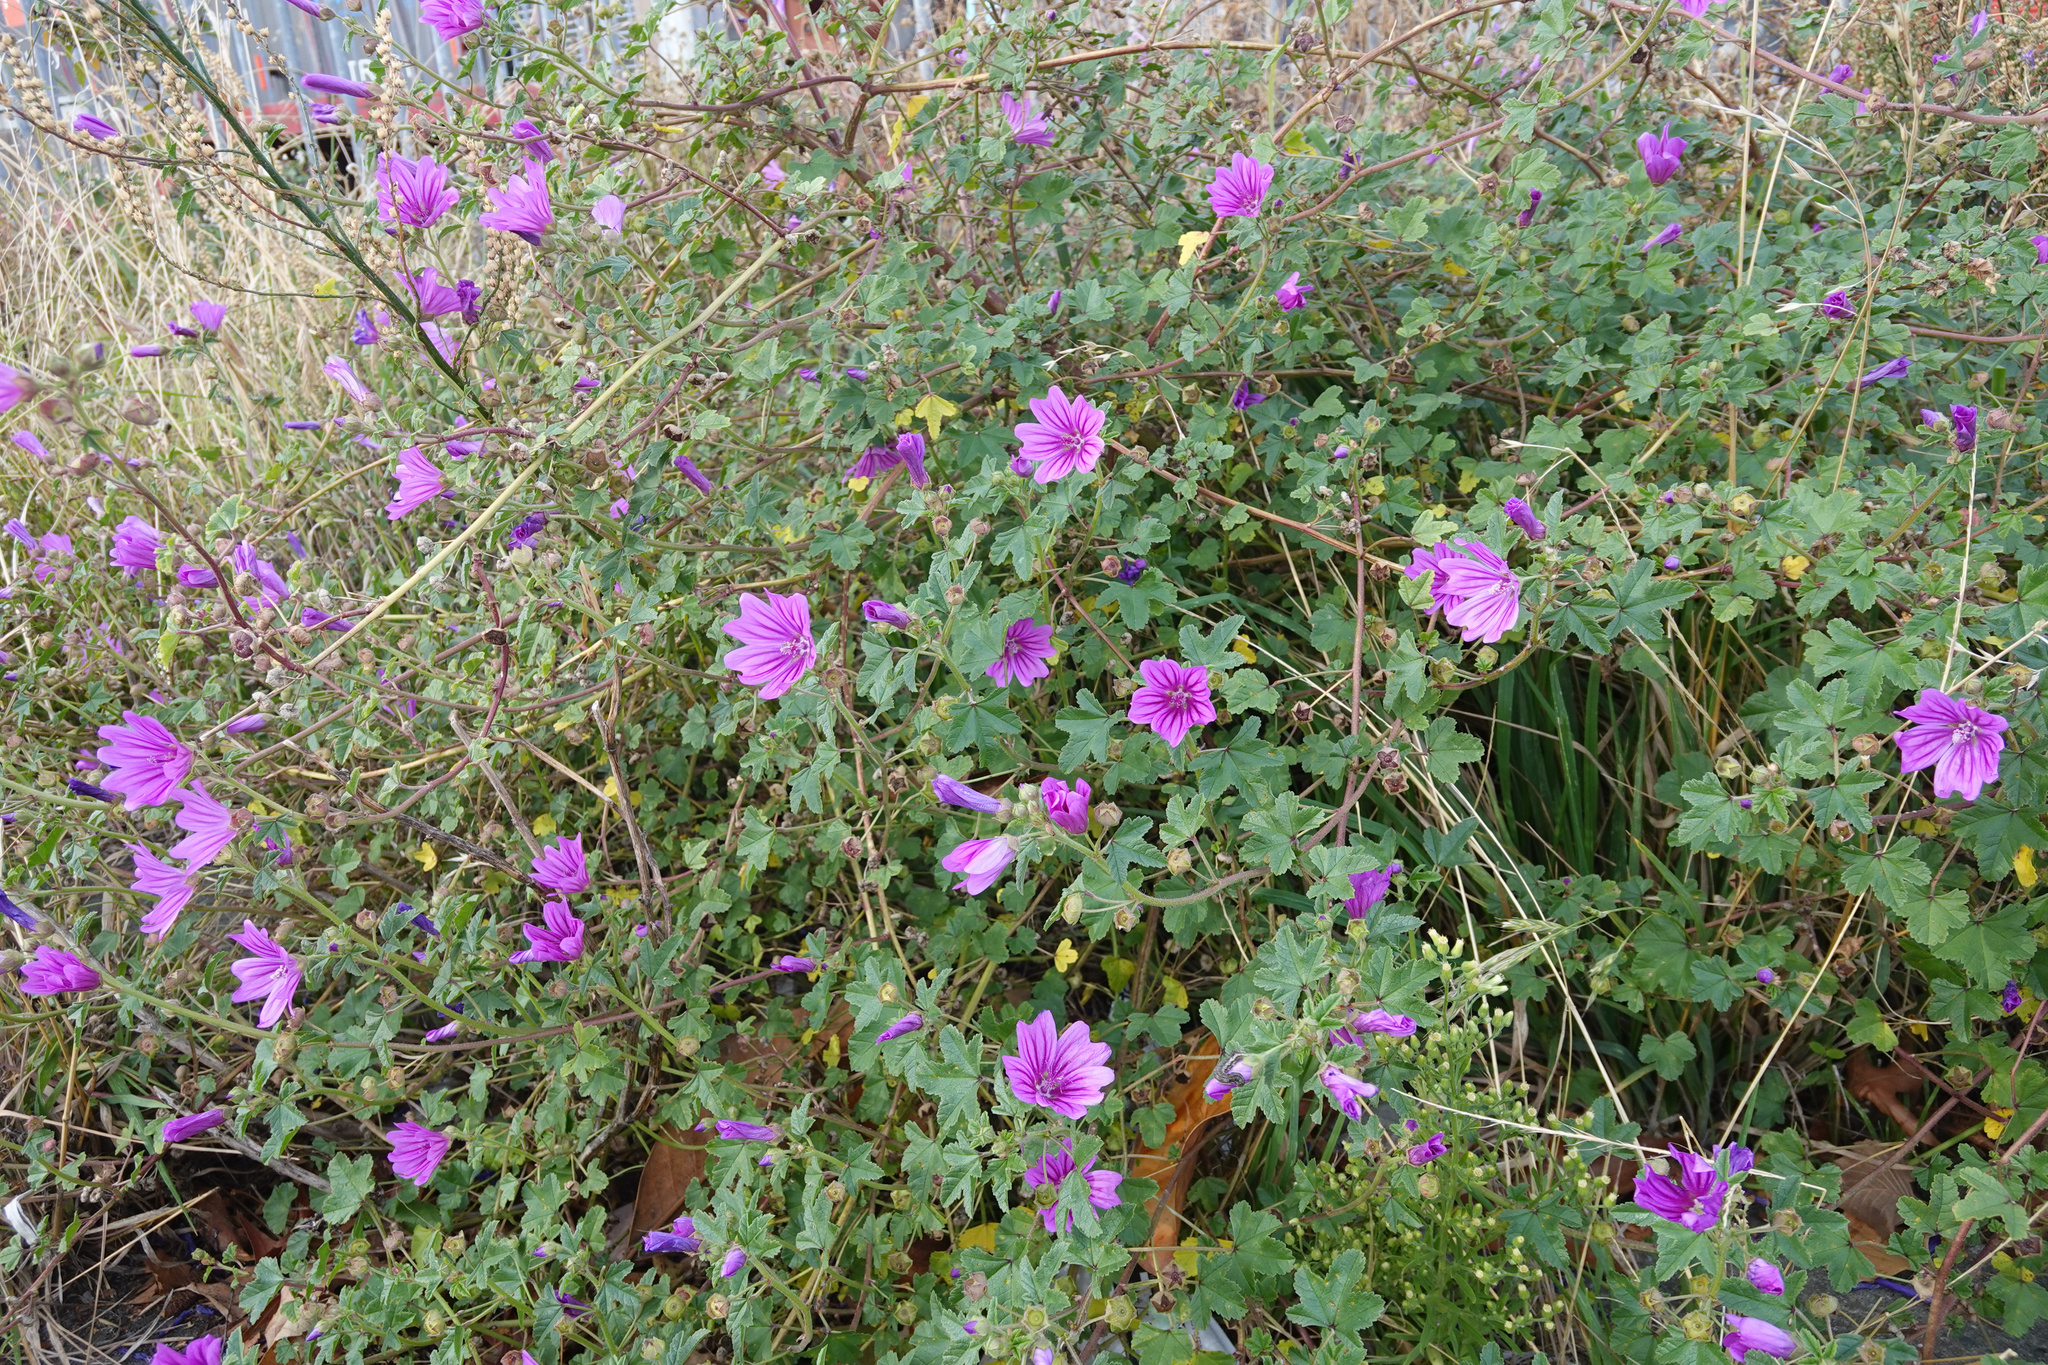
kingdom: Plantae
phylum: Tracheophyta
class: Magnoliopsida
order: Malvales
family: Malvaceae
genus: Malva
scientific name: Malva sylvestris
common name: Common mallow
